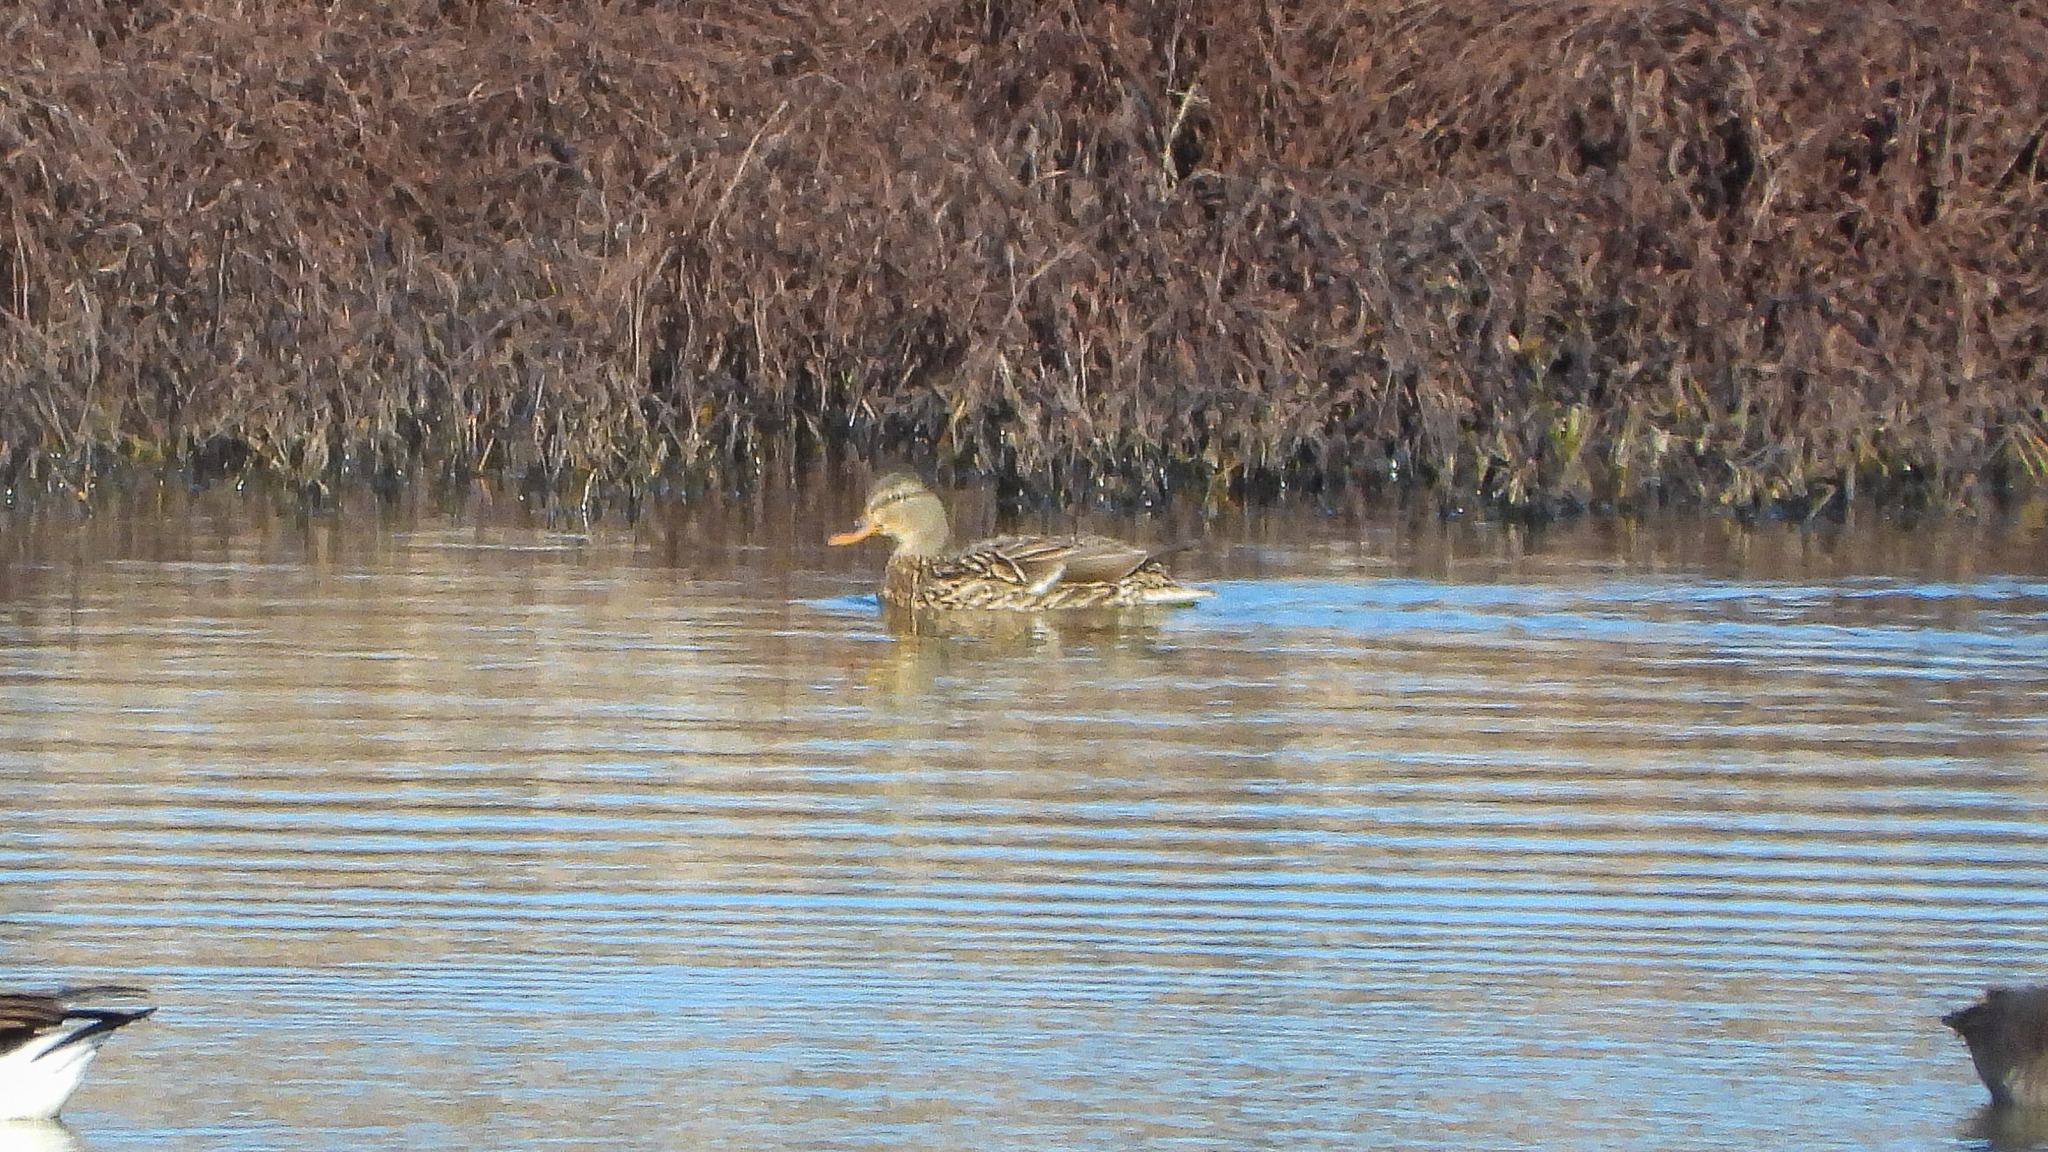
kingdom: Animalia
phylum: Chordata
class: Aves
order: Anseriformes
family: Anatidae
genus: Anas
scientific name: Anas platyrhynchos
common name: Mallard
